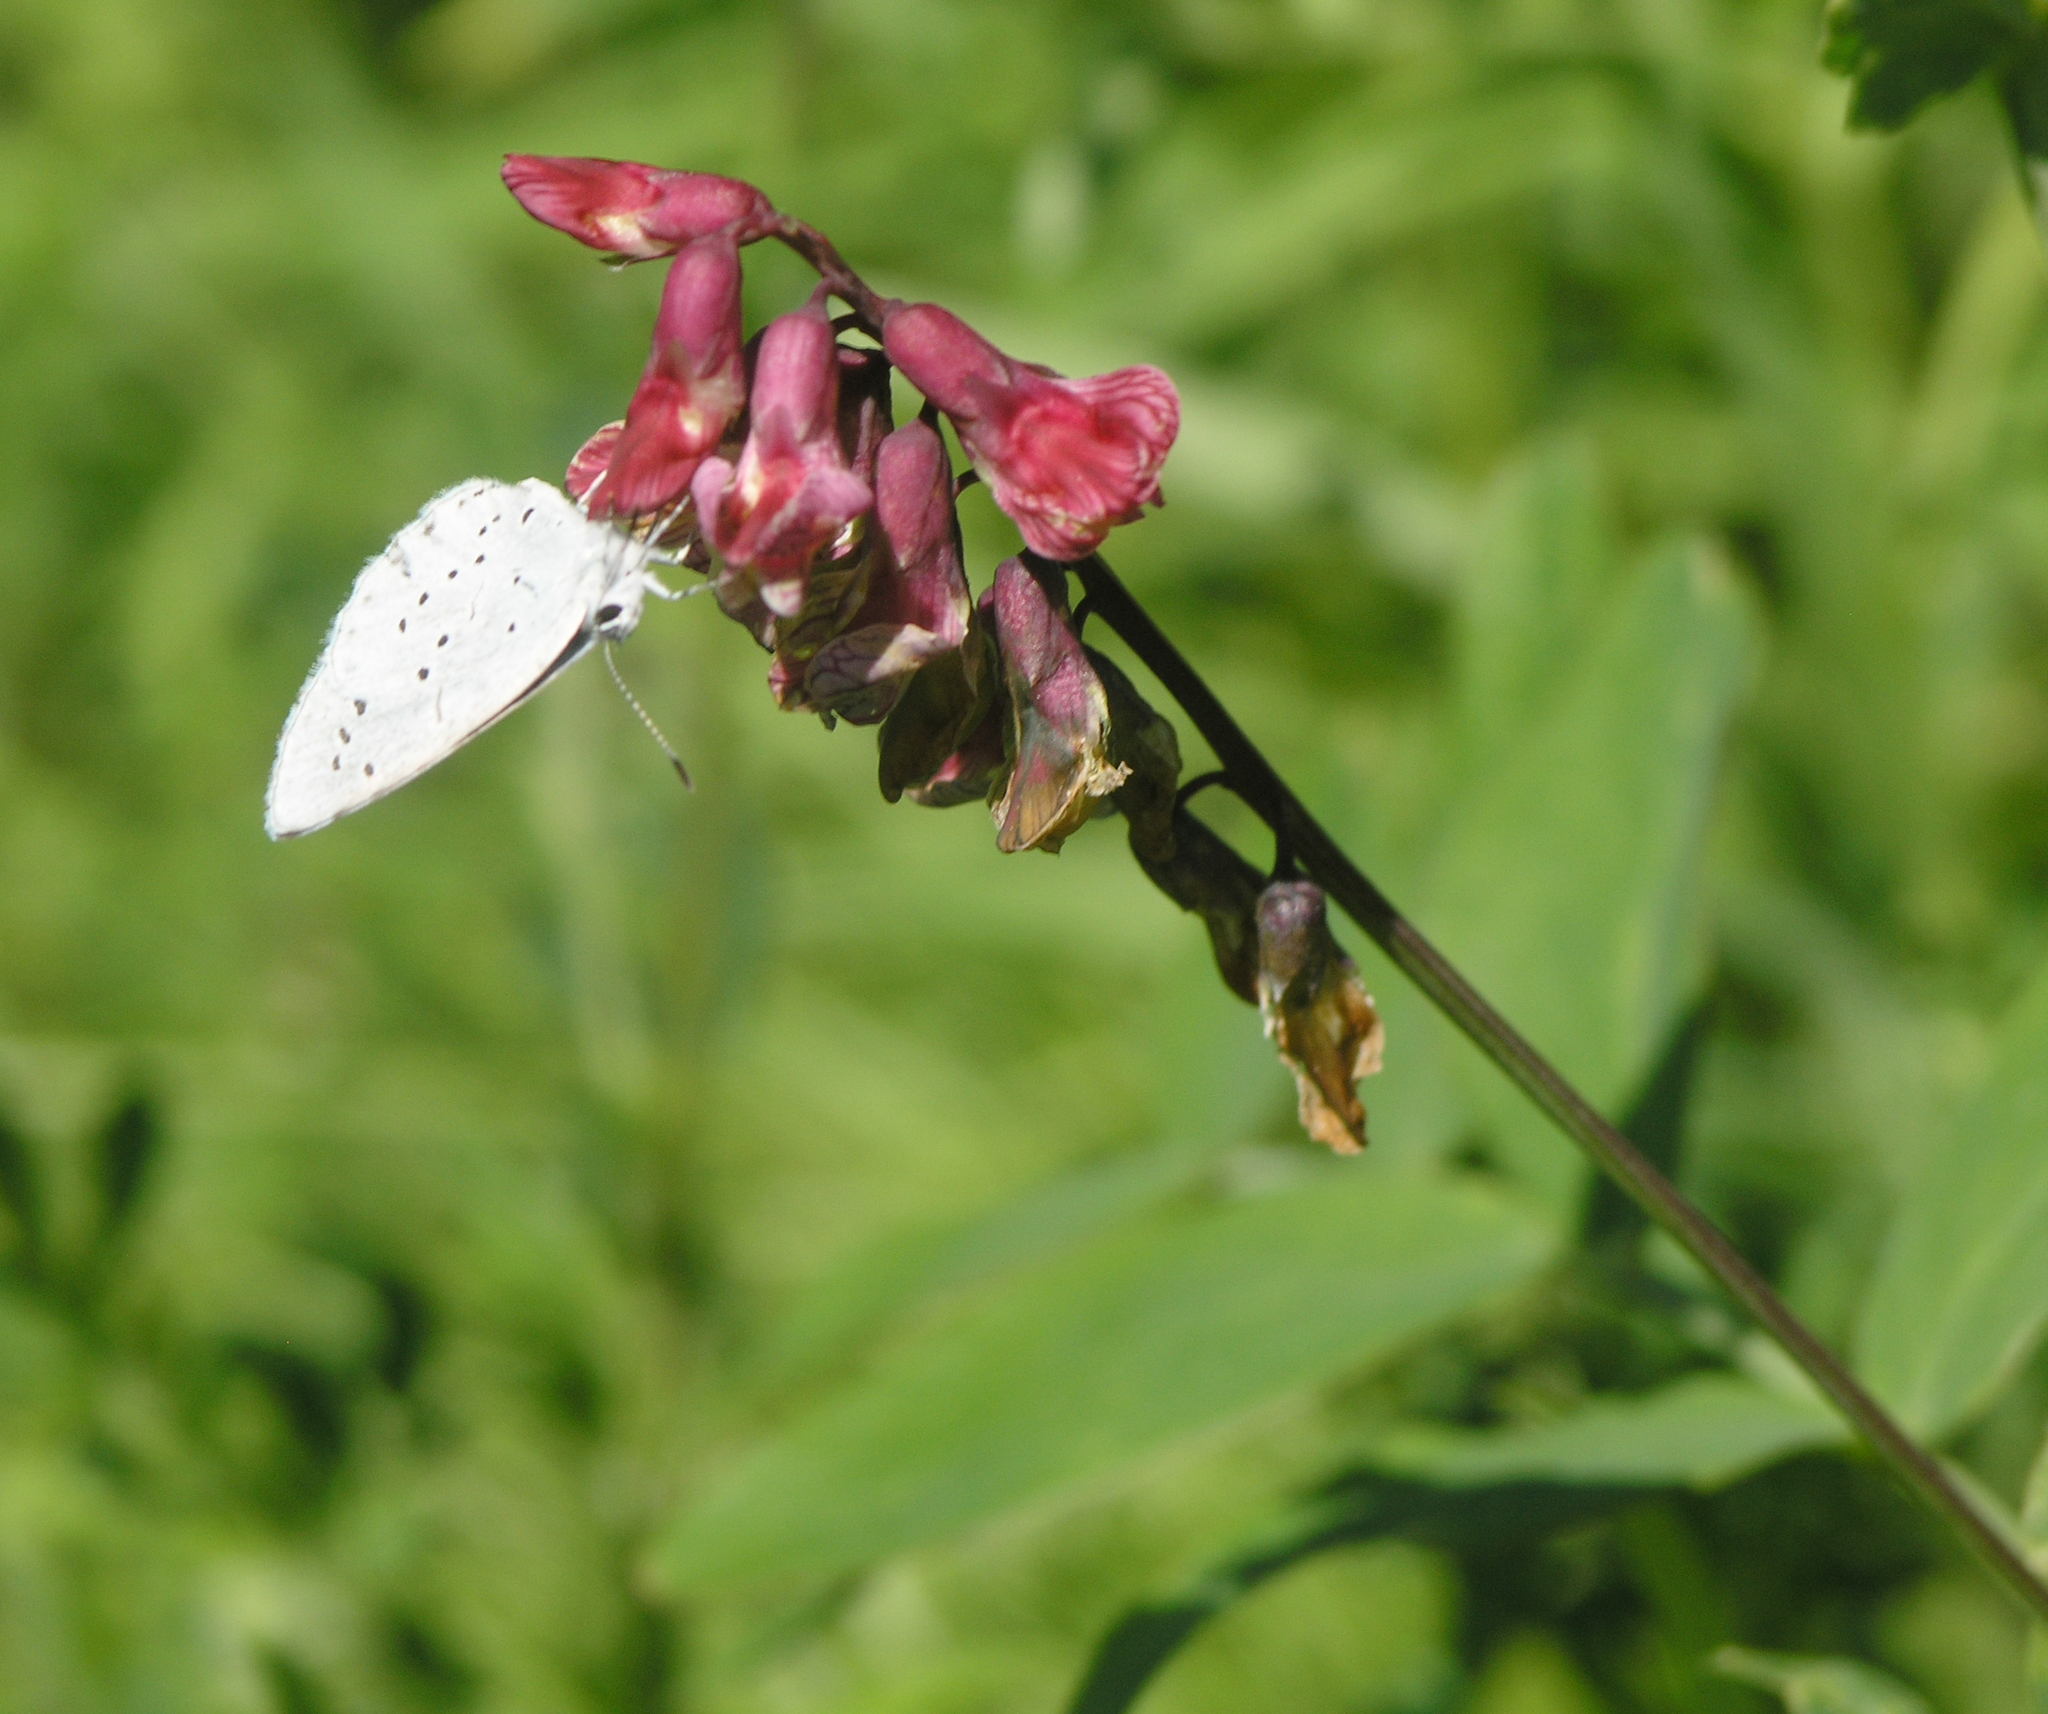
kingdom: Plantae
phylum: Tracheophyta
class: Magnoliopsida
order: Fabales
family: Fabaceae
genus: Lathyrus
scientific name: Lathyrus pisiformis
